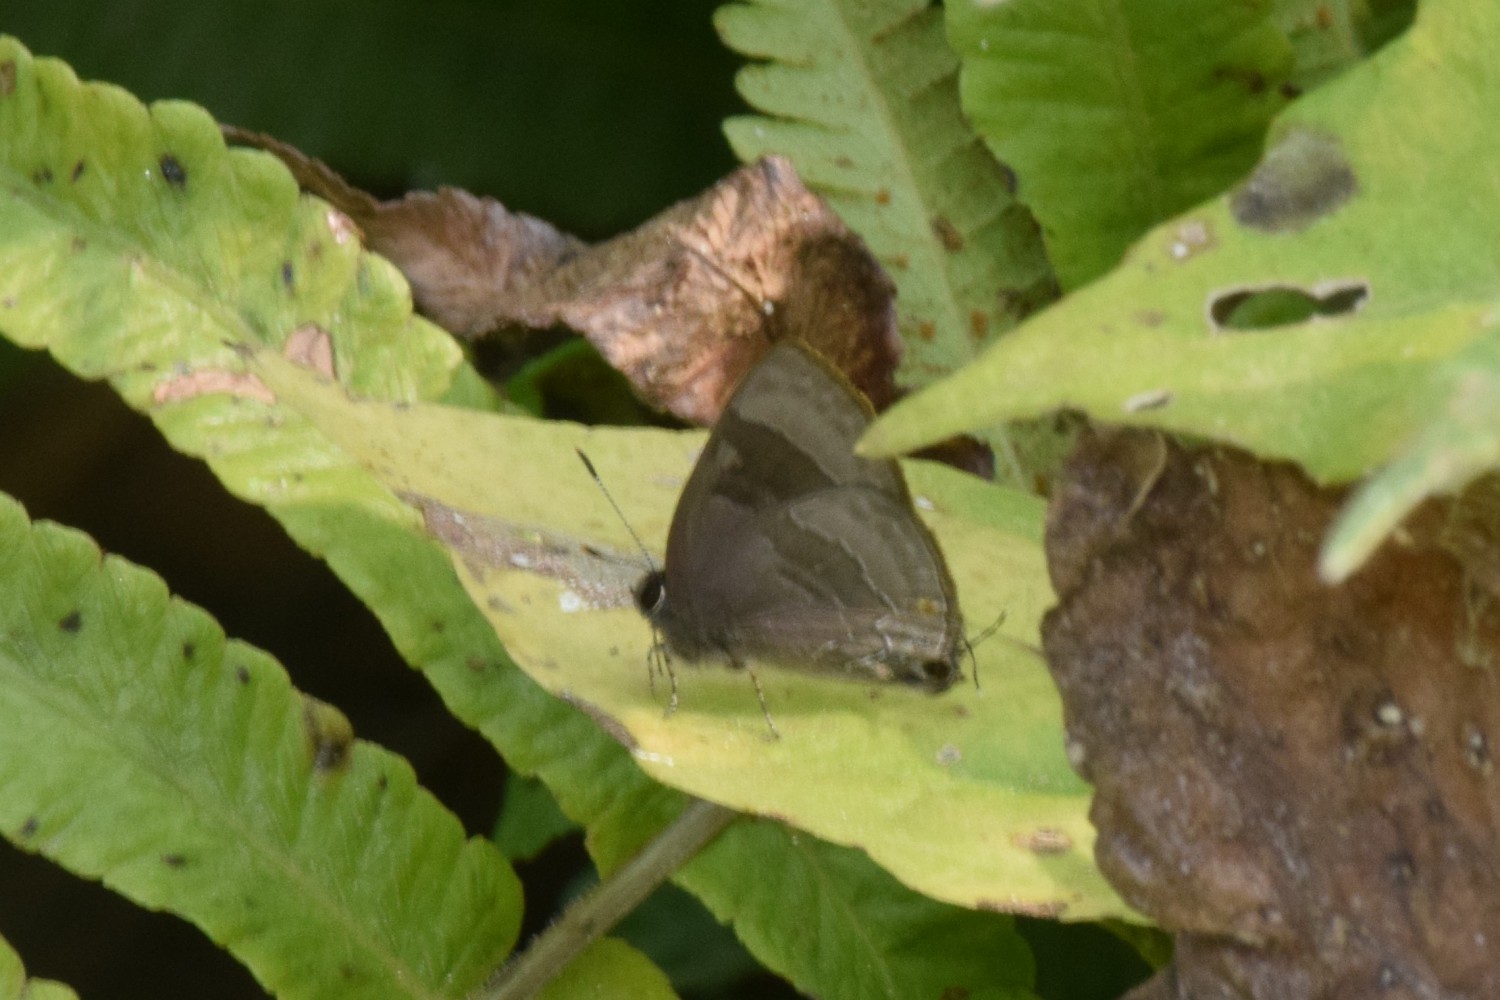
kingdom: Animalia
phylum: Arthropoda
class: Insecta
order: Lepidoptera
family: Lycaenidae
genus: Rapala
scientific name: Rapala varuna
